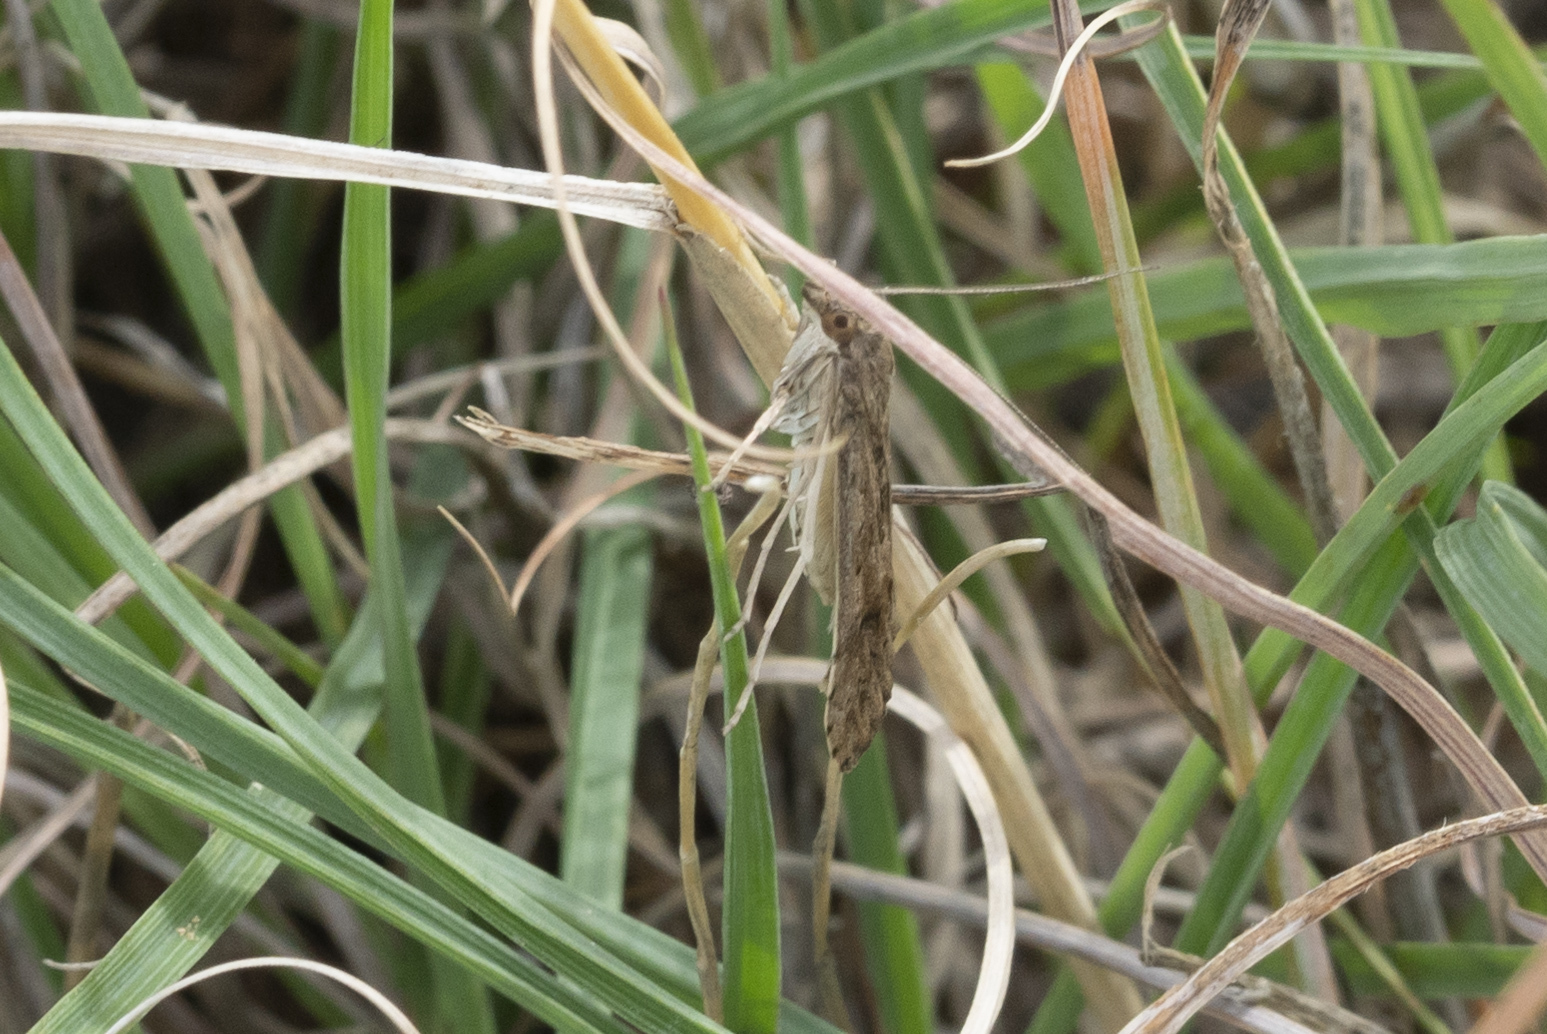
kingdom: Animalia
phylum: Arthropoda
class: Insecta
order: Lepidoptera
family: Crambidae
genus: Nomophila
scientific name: Nomophila noctuella
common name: Rush veneer
